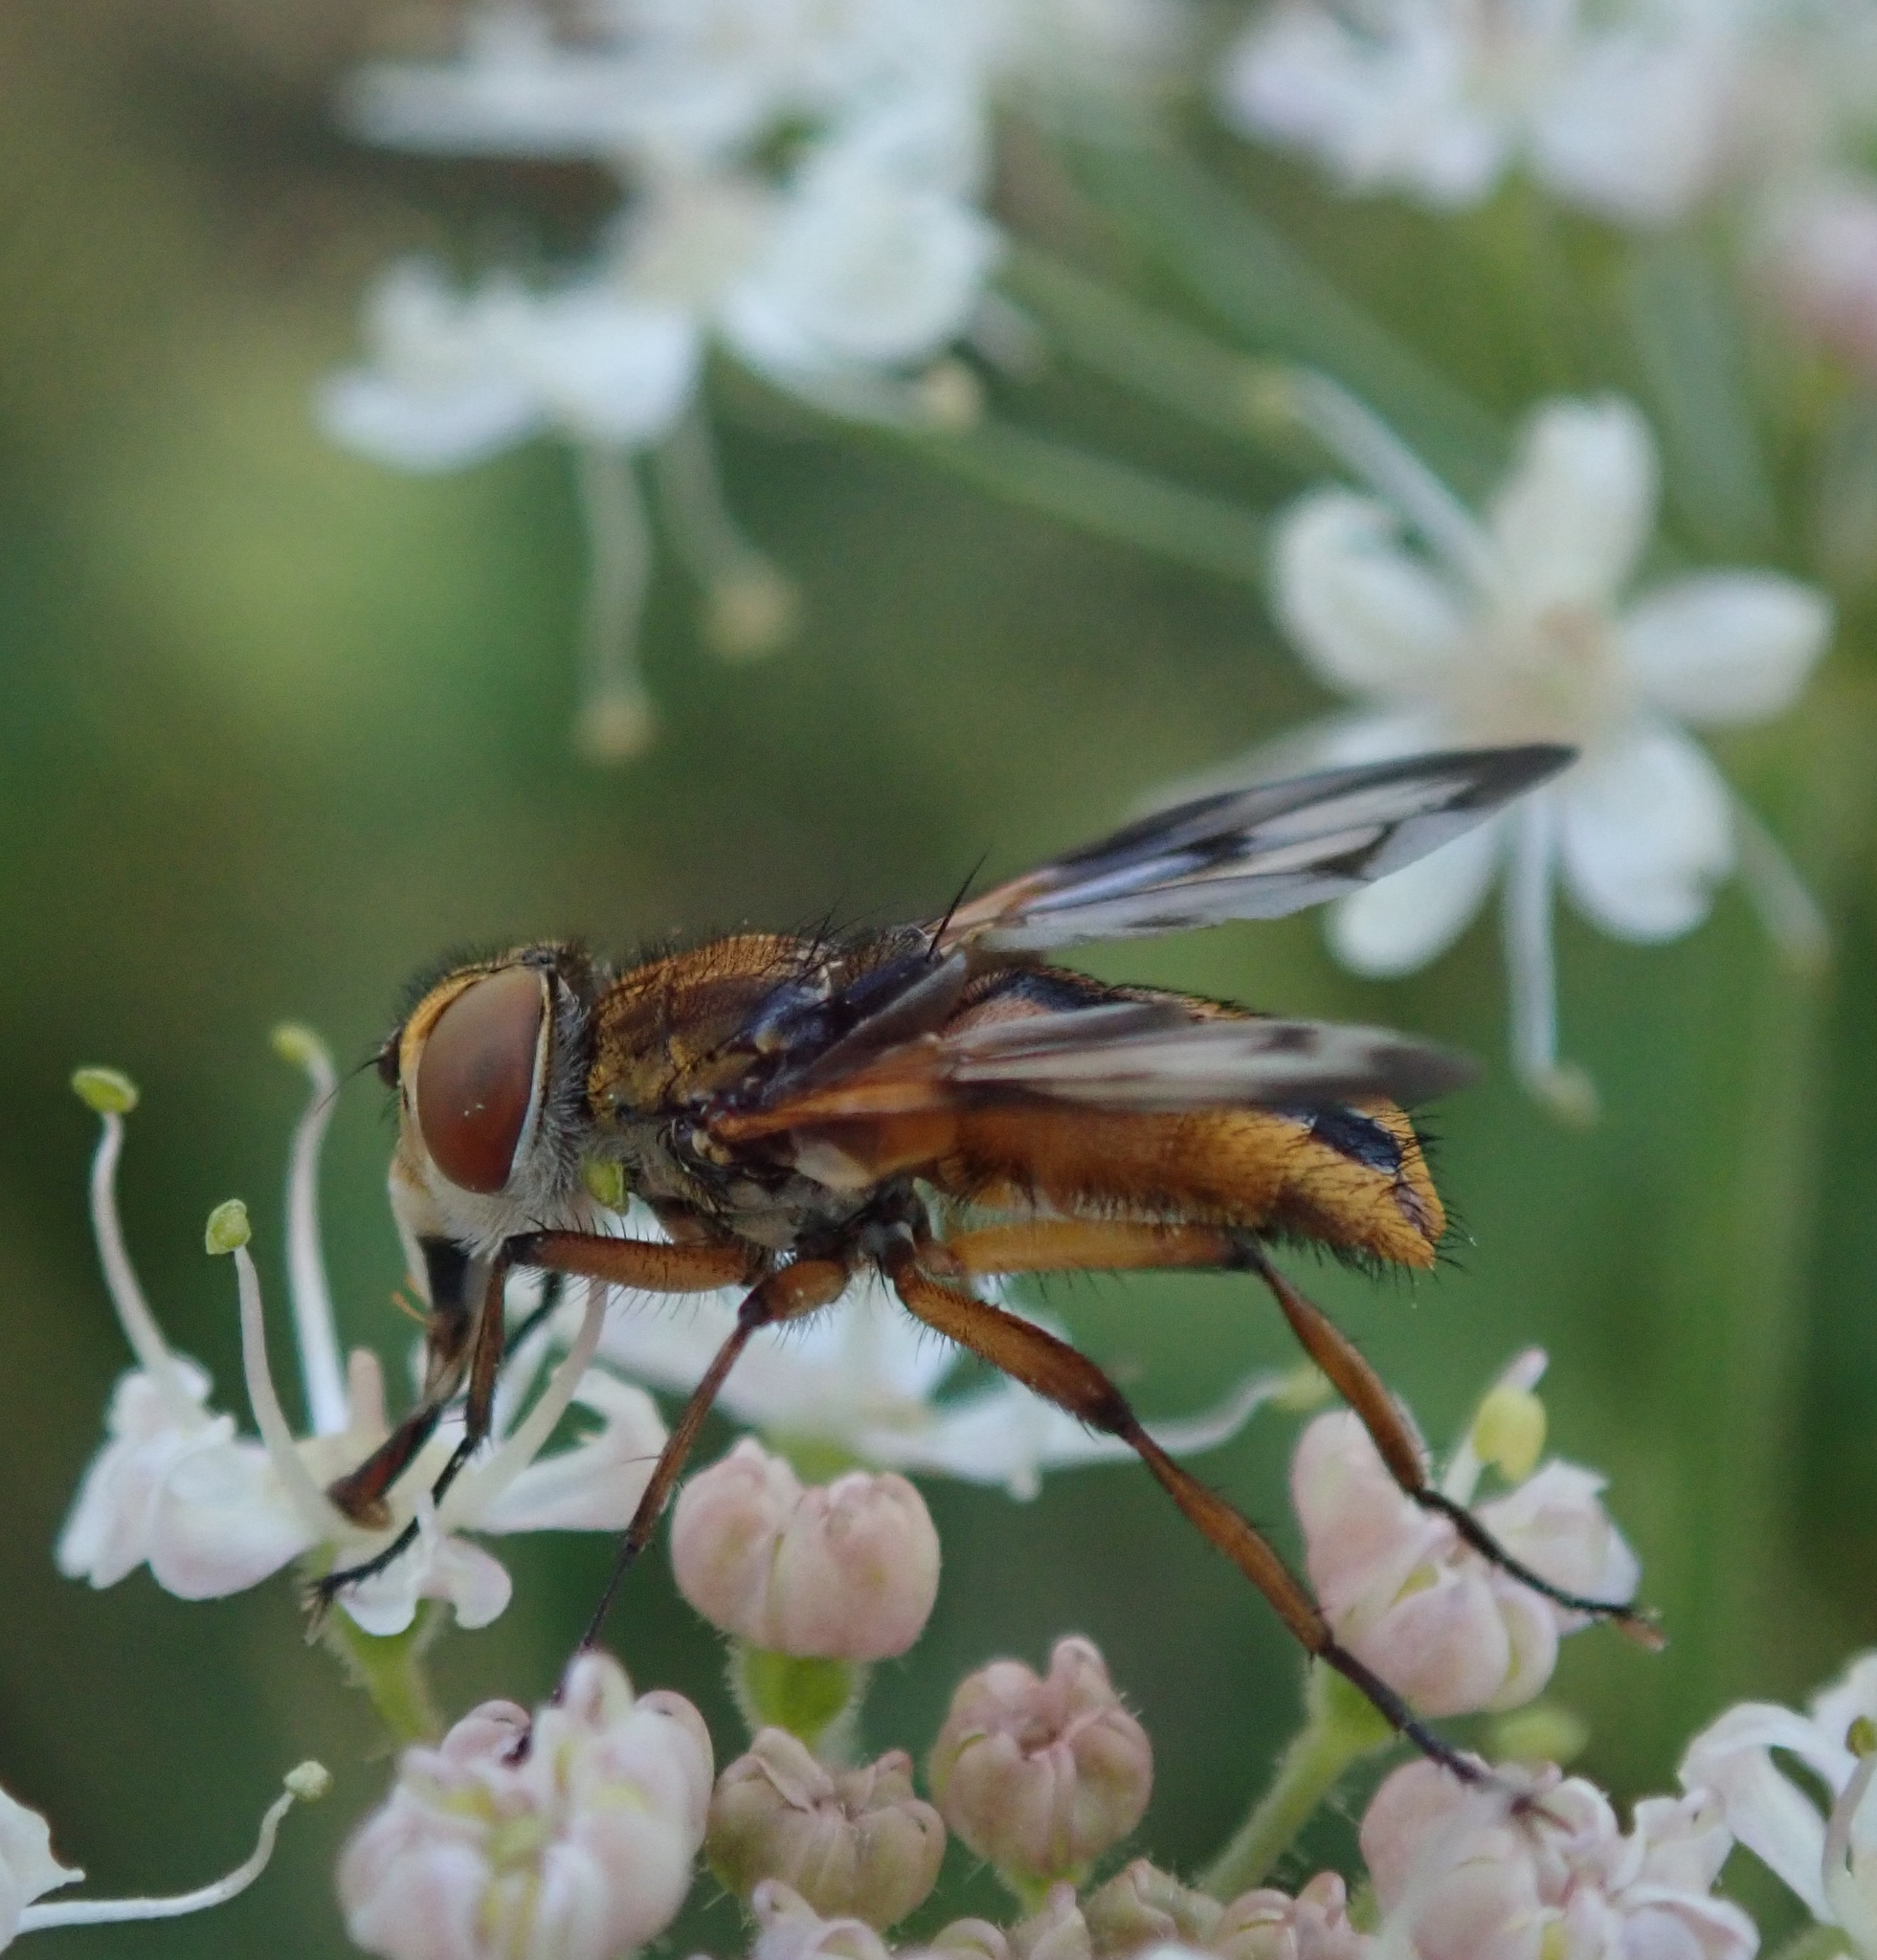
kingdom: Animalia
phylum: Arthropoda
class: Insecta
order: Diptera
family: Tachinidae
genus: Ectophasia
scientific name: Ectophasia crassipennis
